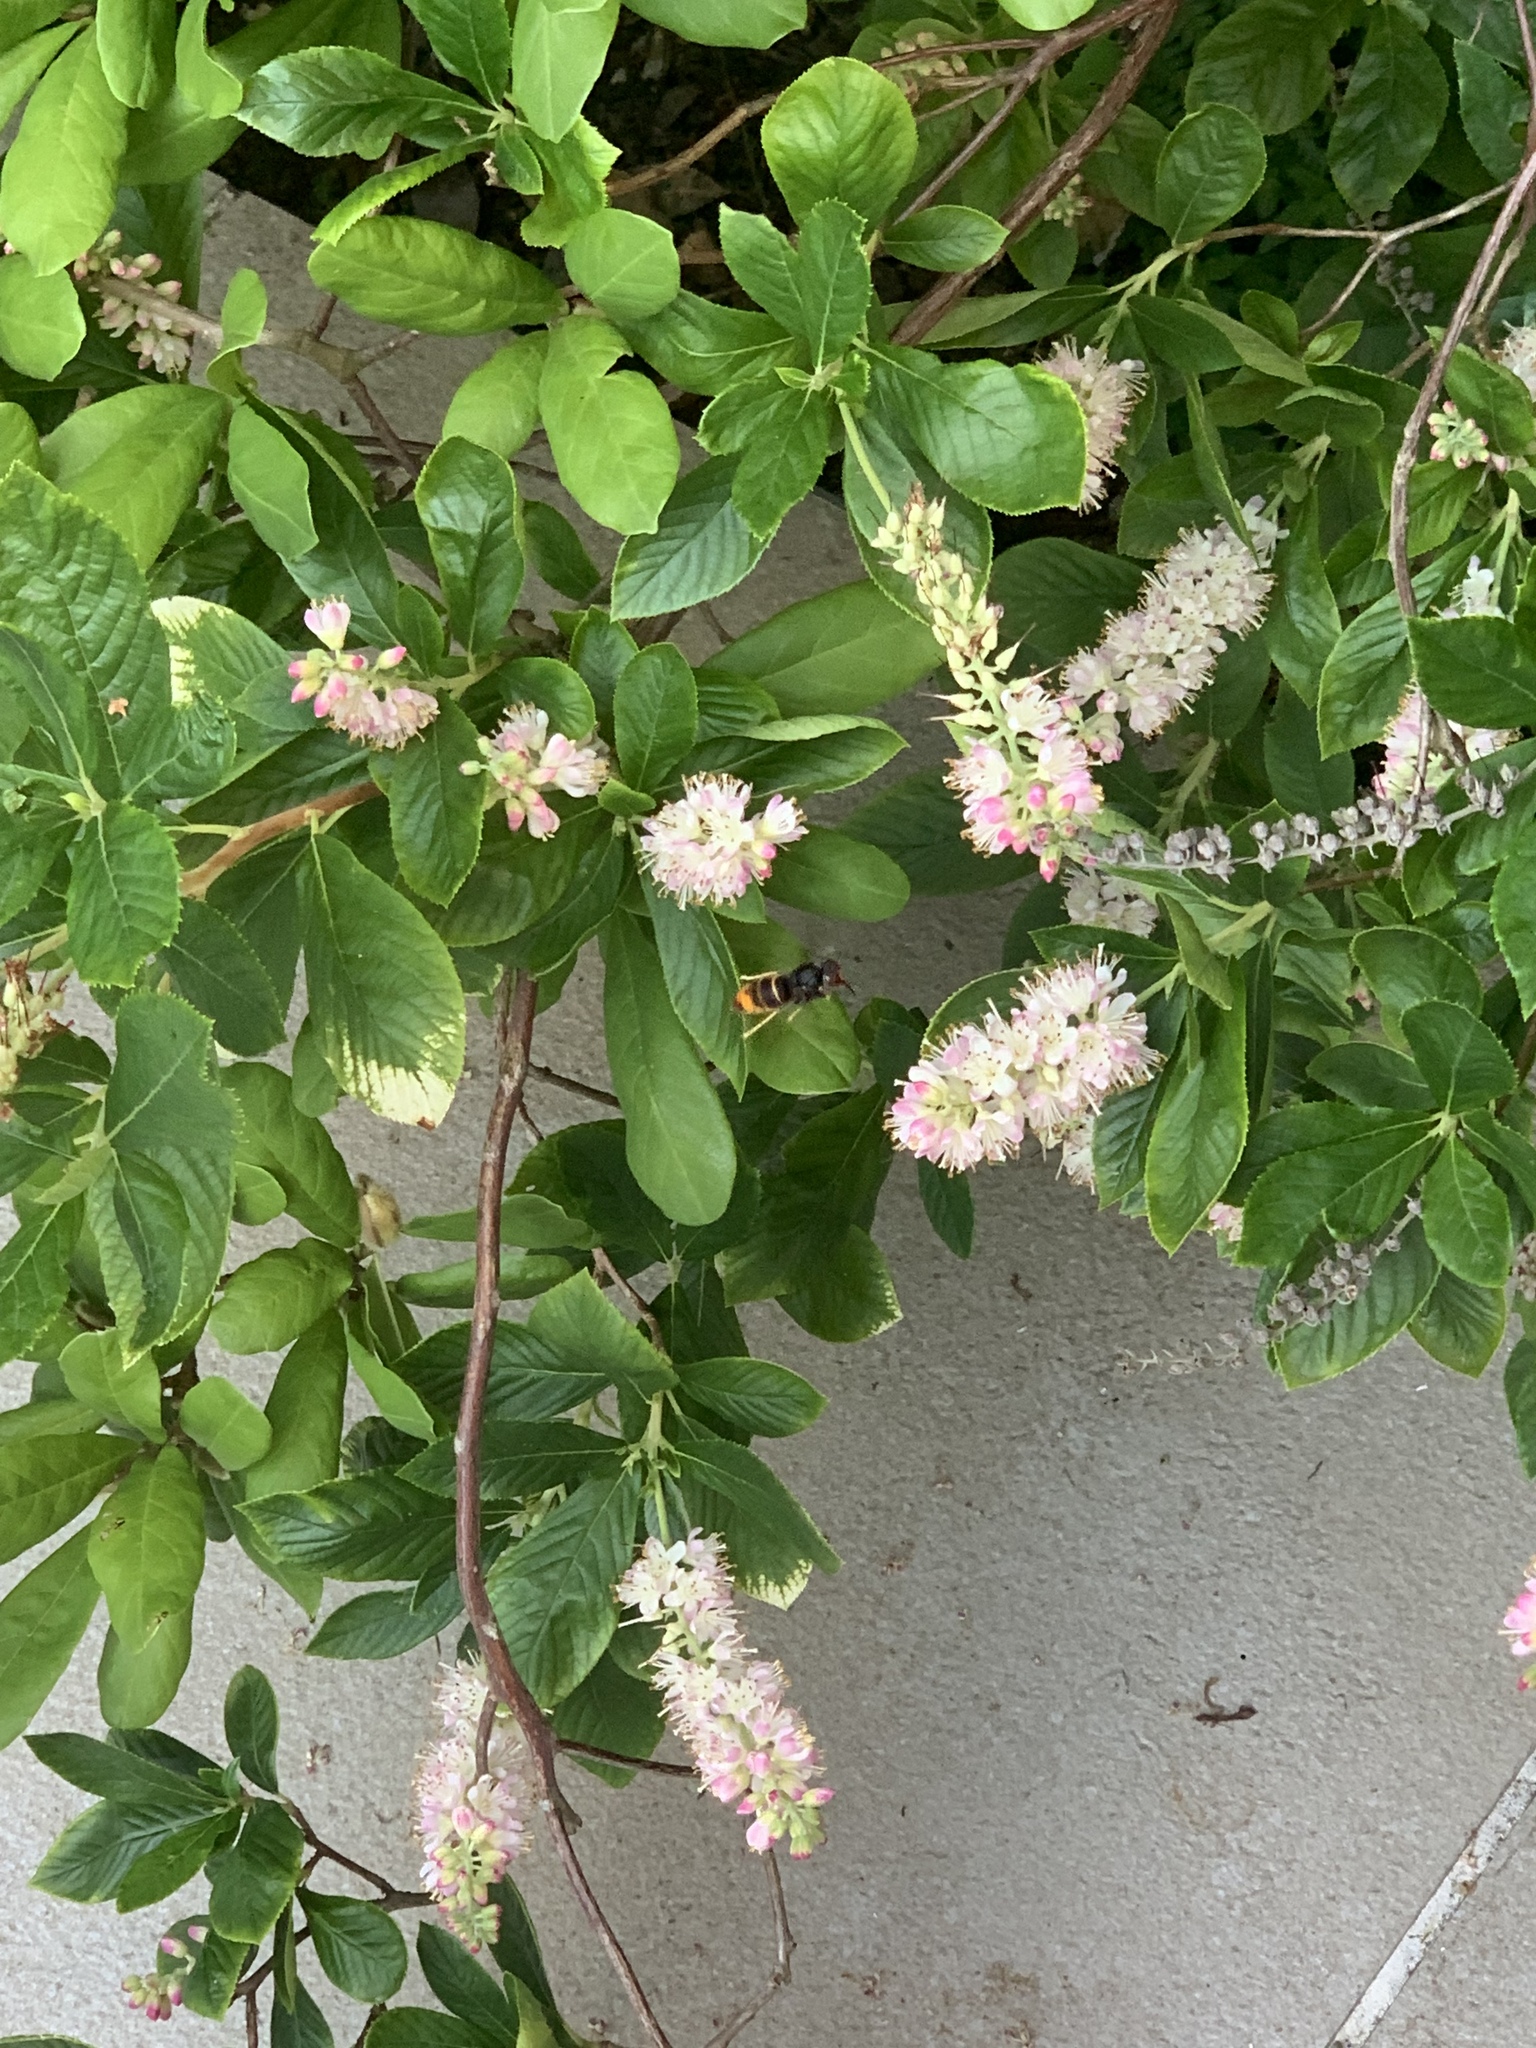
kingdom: Animalia
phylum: Arthropoda
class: Insecta
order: Hymenoptera
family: Vespidae
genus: Vespa
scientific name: Vespa velutina
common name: Asian hornet
